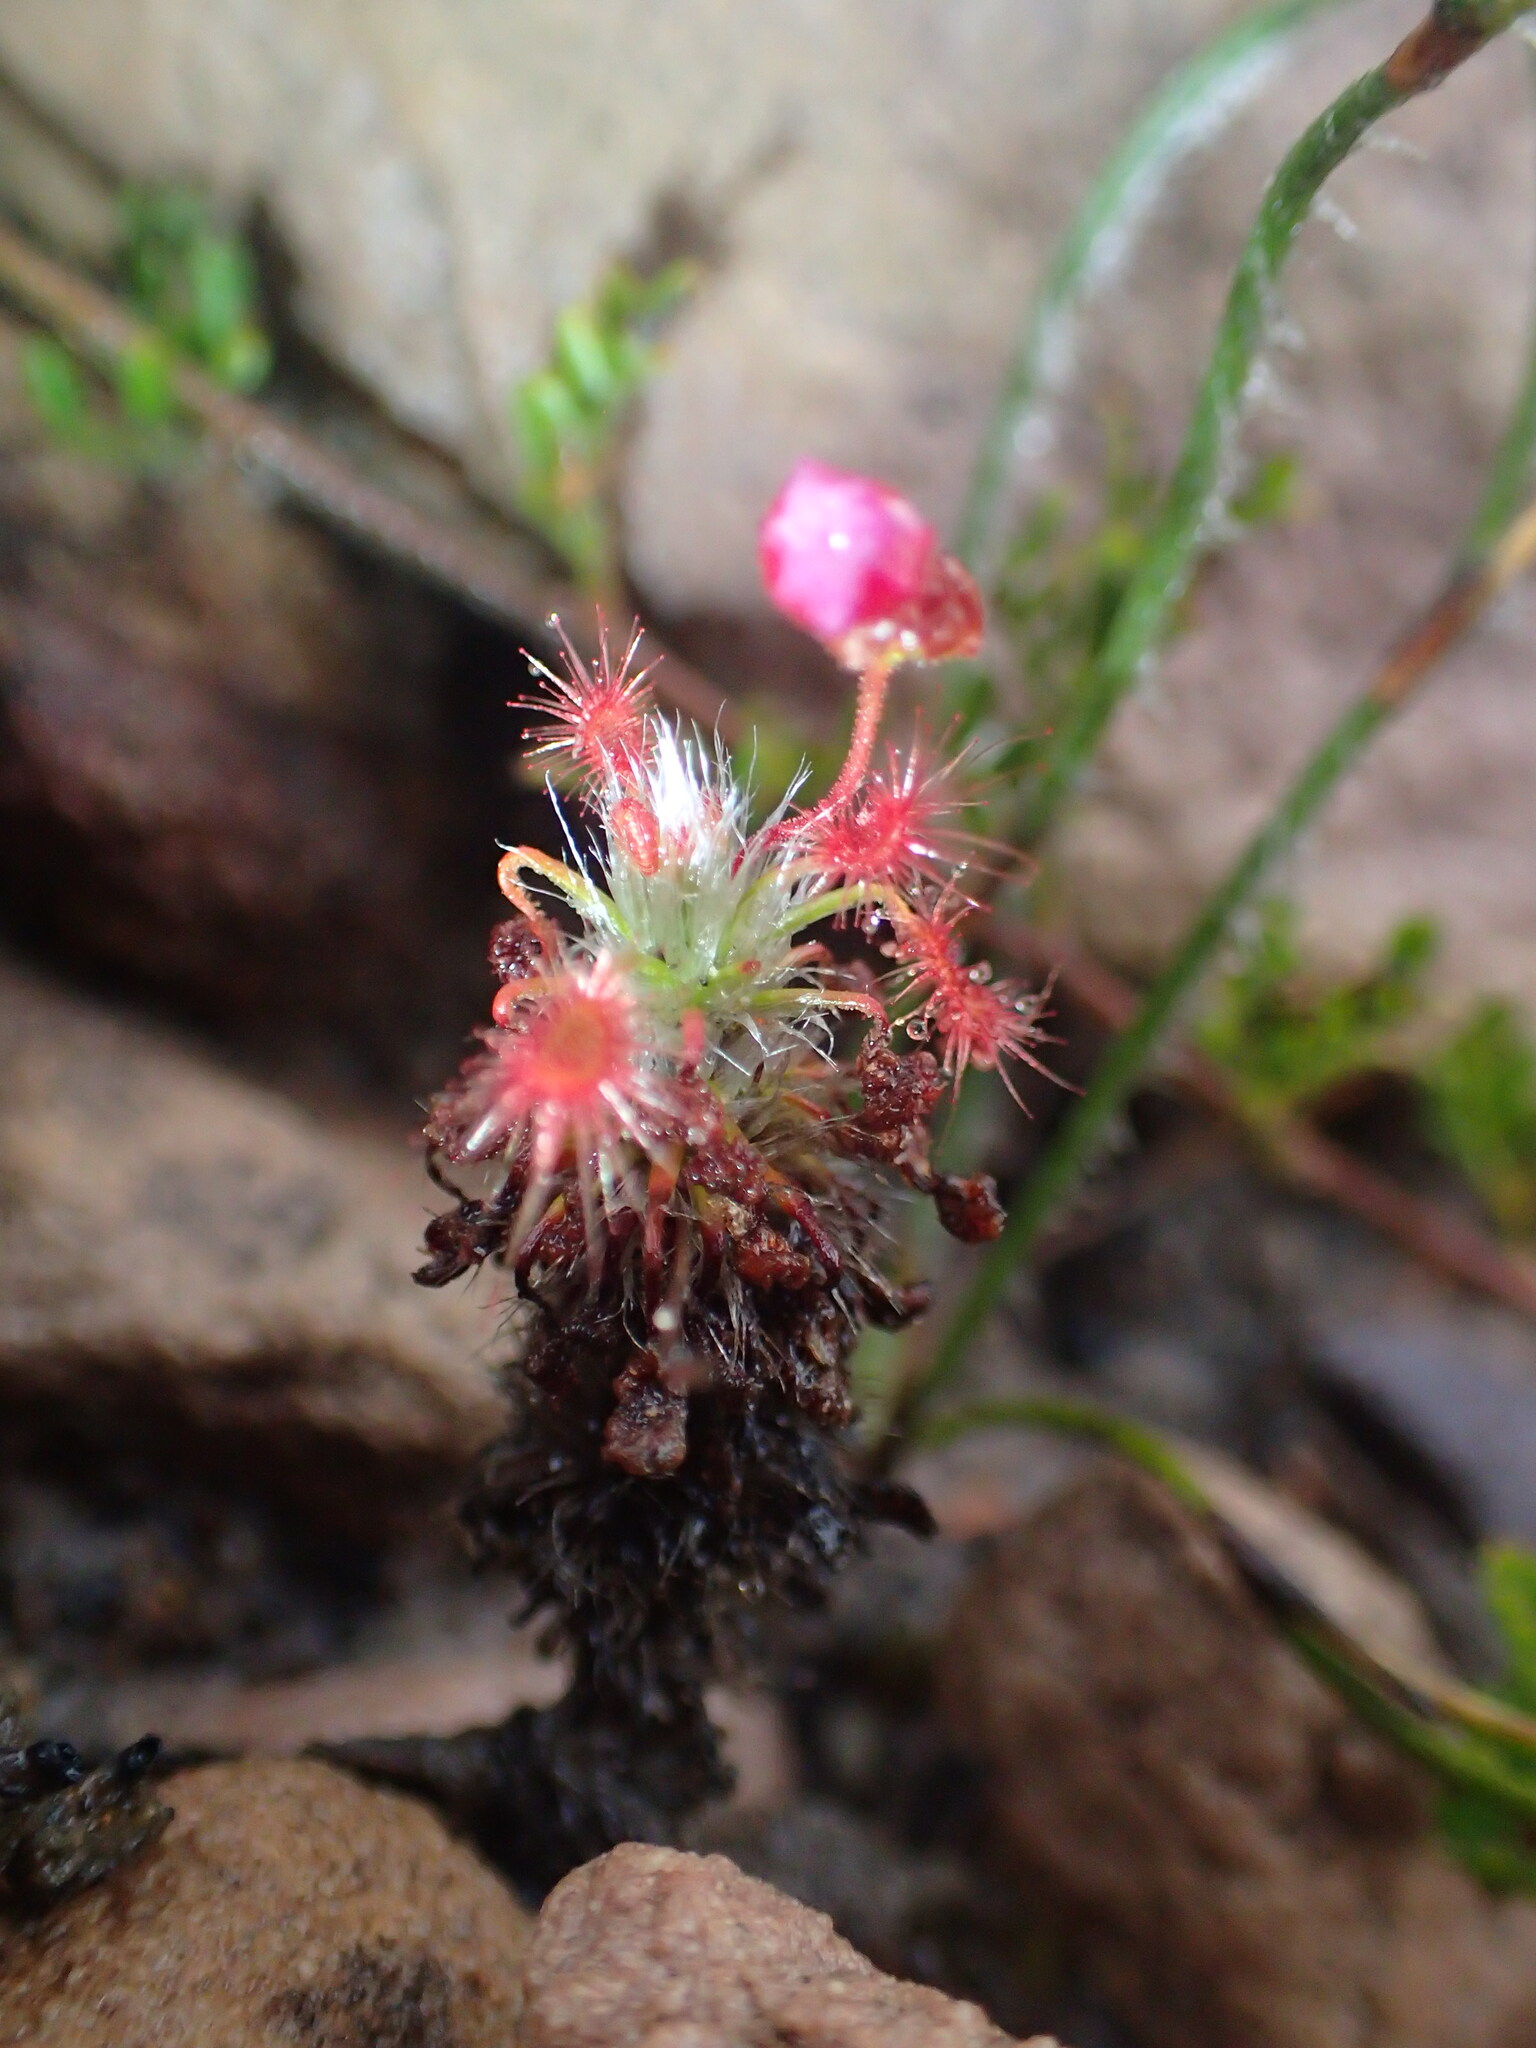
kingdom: Plantae
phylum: Tracheophyta
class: Magnoliopsida
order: Caryophyllales
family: Droseraceae
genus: Drosera
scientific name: Drosera gibsonii
